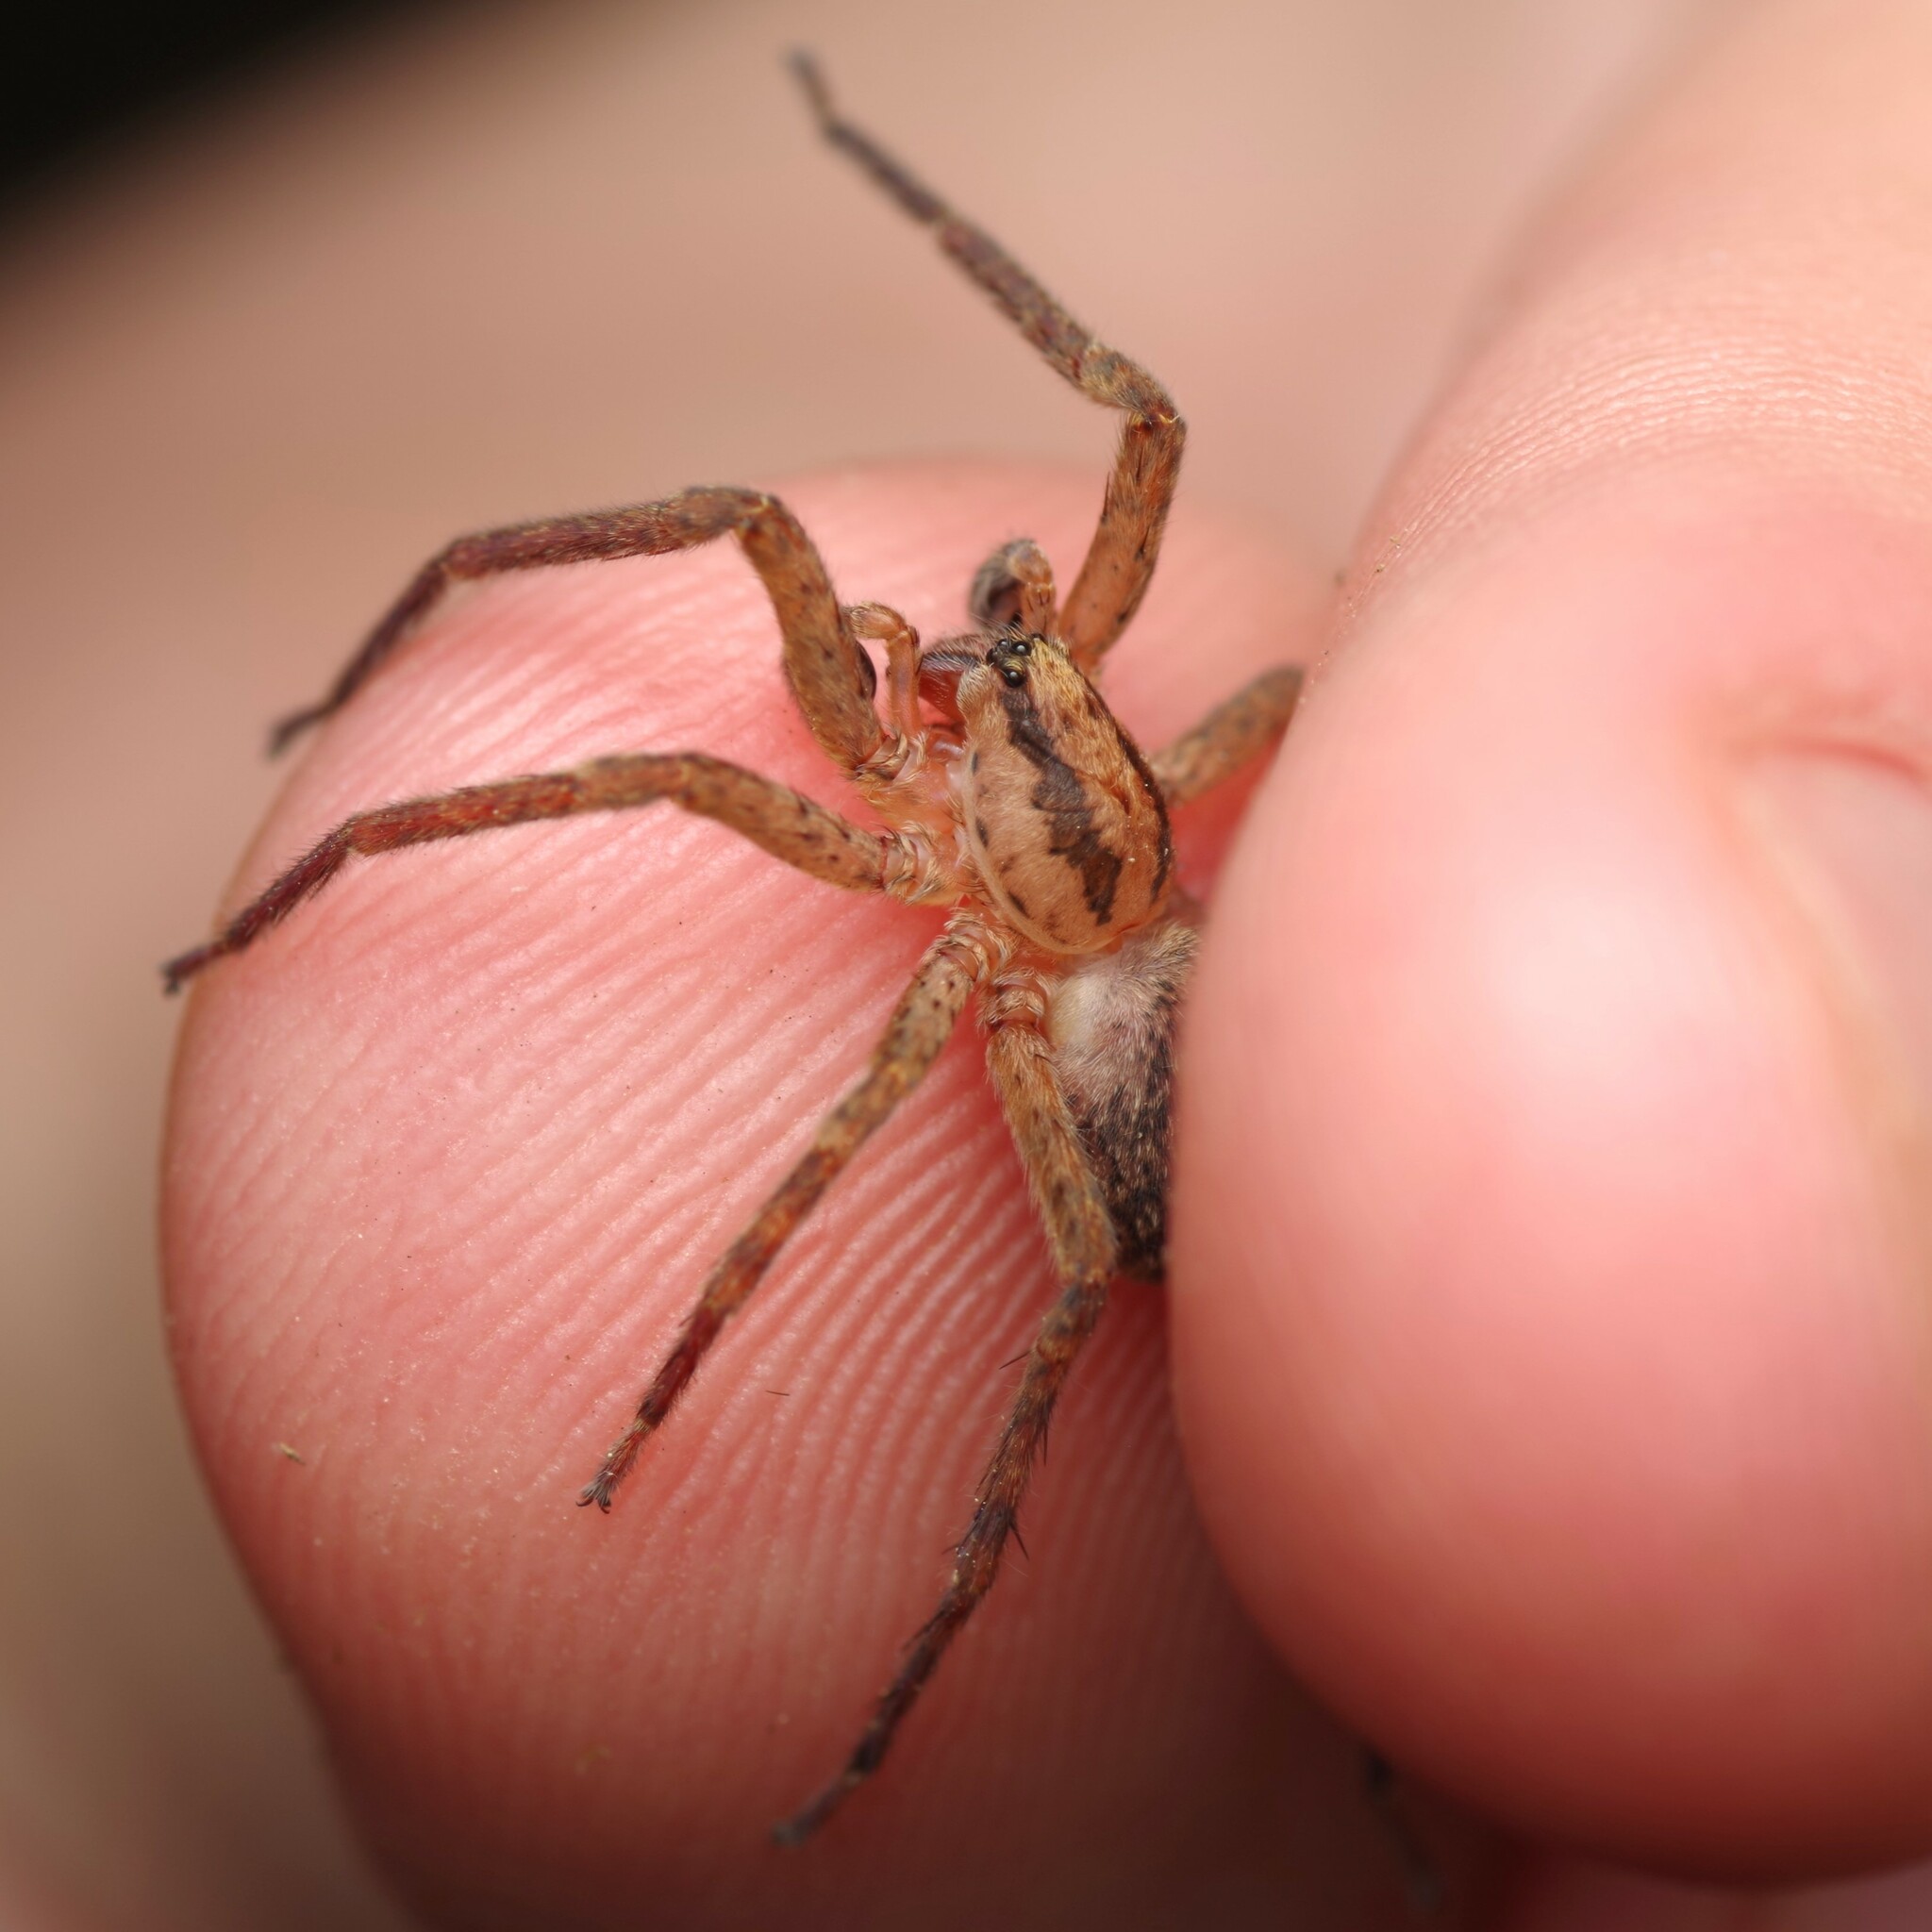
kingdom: Animalia
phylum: Arthropoda
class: Arachnida
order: Araneae
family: Zoropsidae
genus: Zoropsis
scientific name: Zoropsis media
